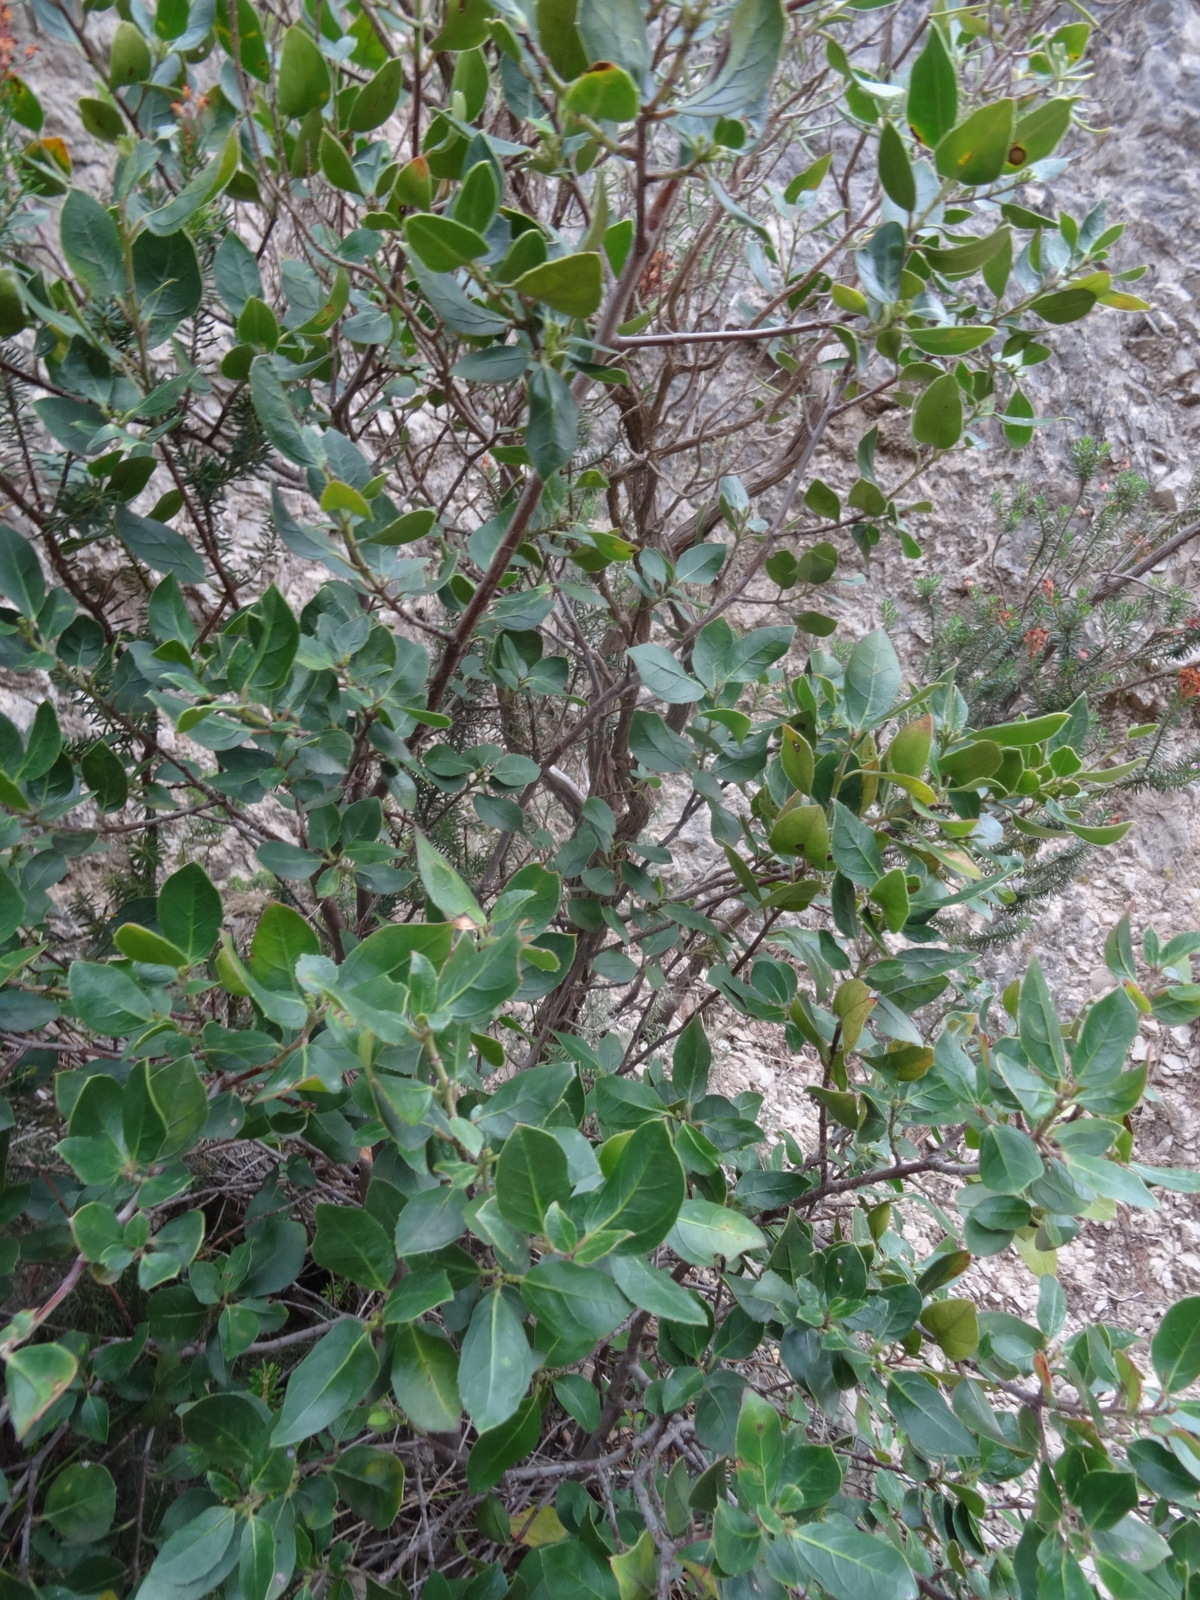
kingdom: Plantae
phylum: Tracheophyta
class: Magnoliopsida
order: Rosales
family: Rhamnaceae
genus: Rhamnus
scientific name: Rhamnus alaternus
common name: Mediterranean buckthorn
